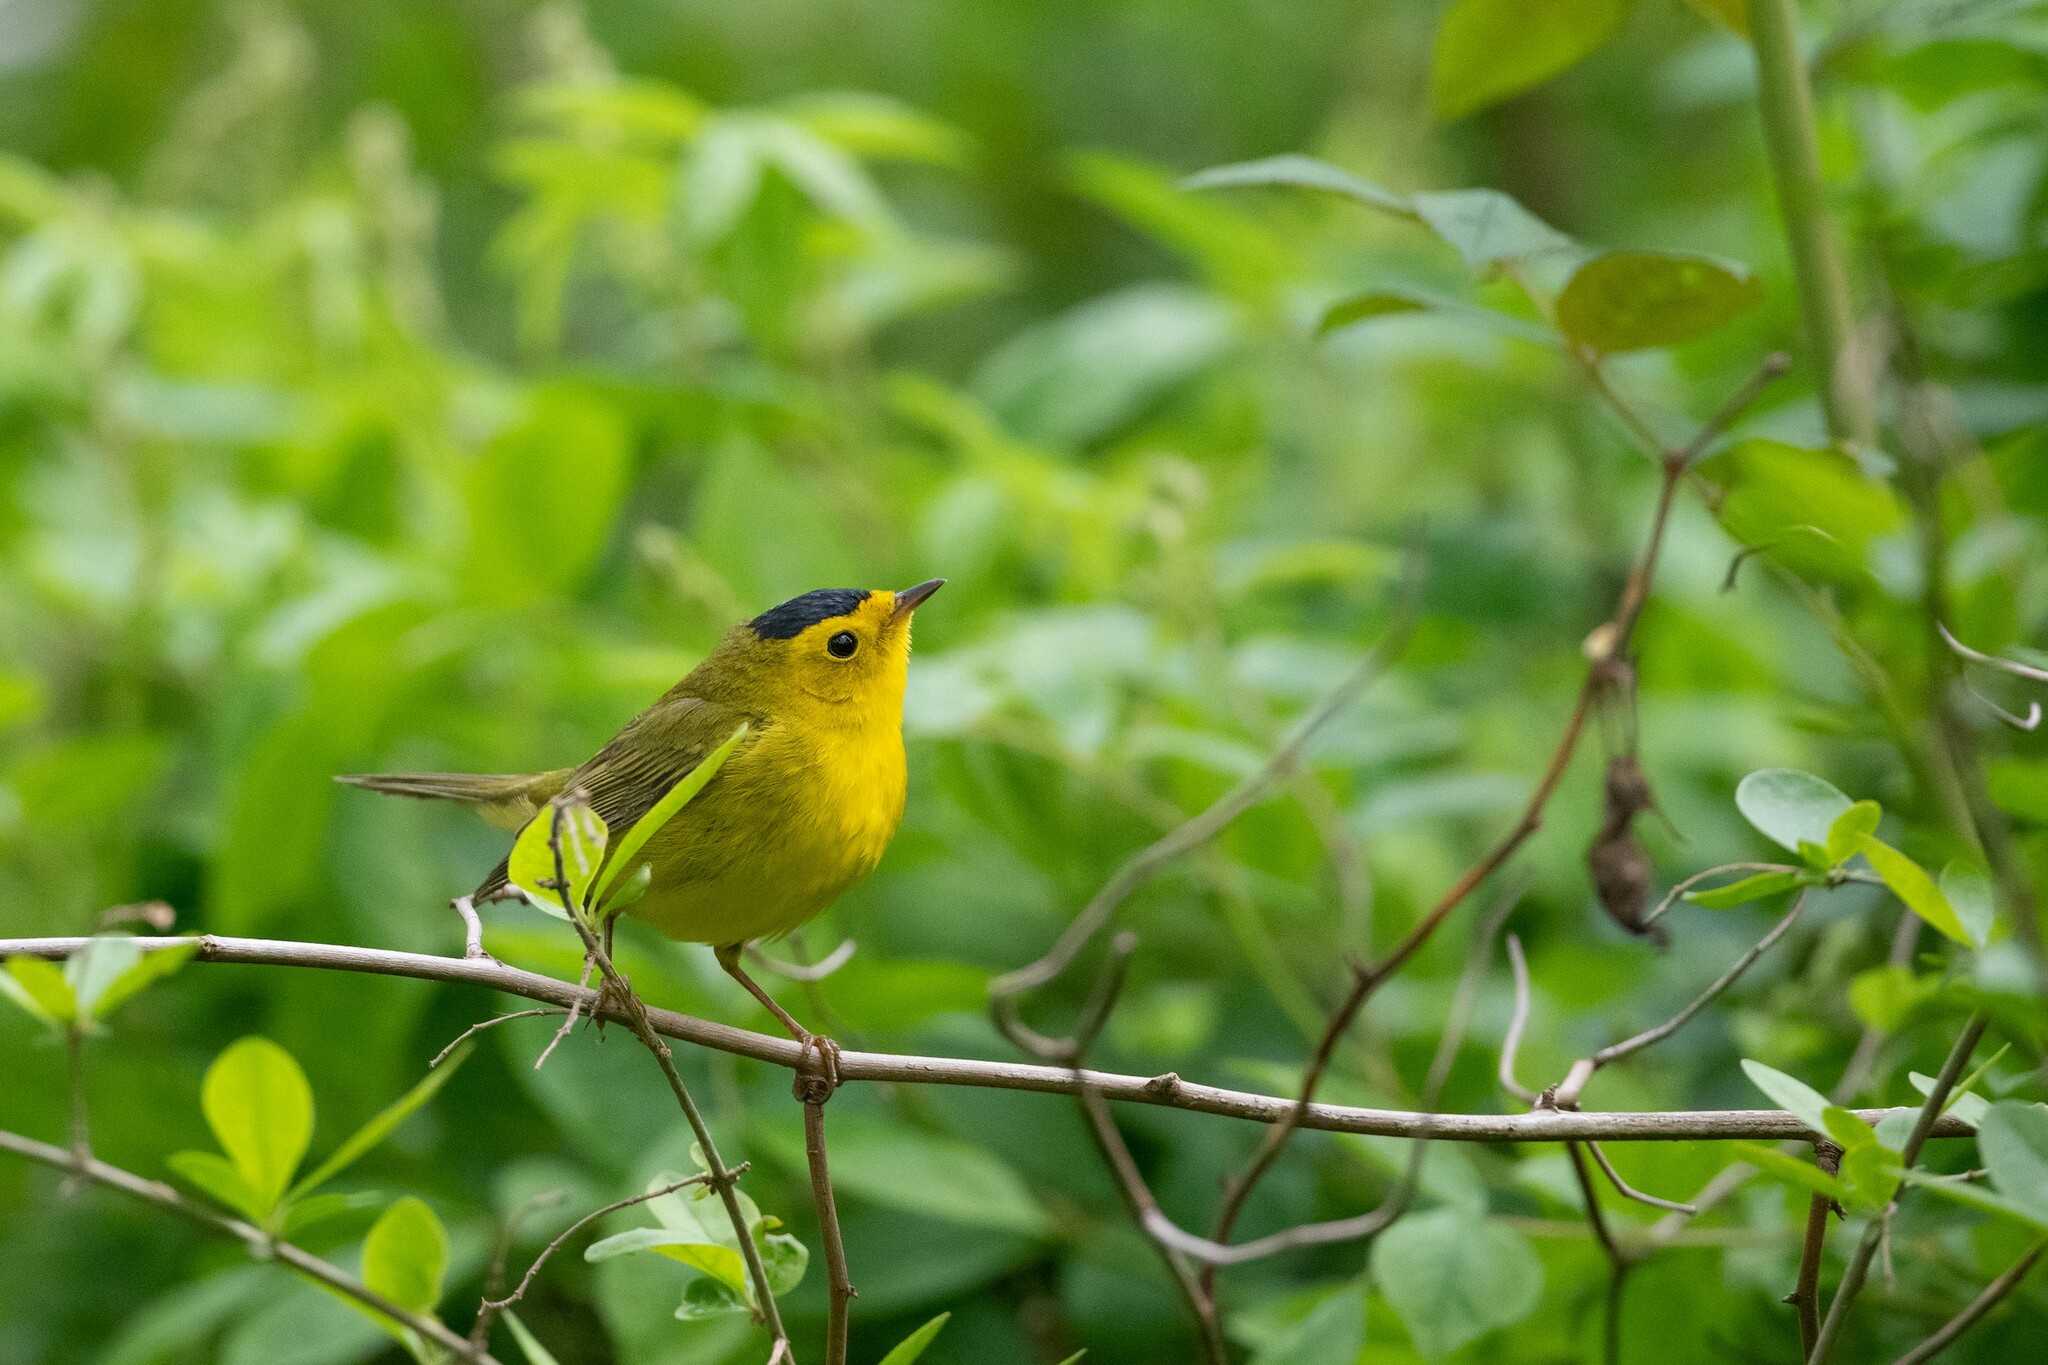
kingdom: Animalia
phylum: Chordata
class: Aves
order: Passeriformes
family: Parulidae
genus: Cardellina
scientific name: Cardellina pusilla
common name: Wilson's warbler
